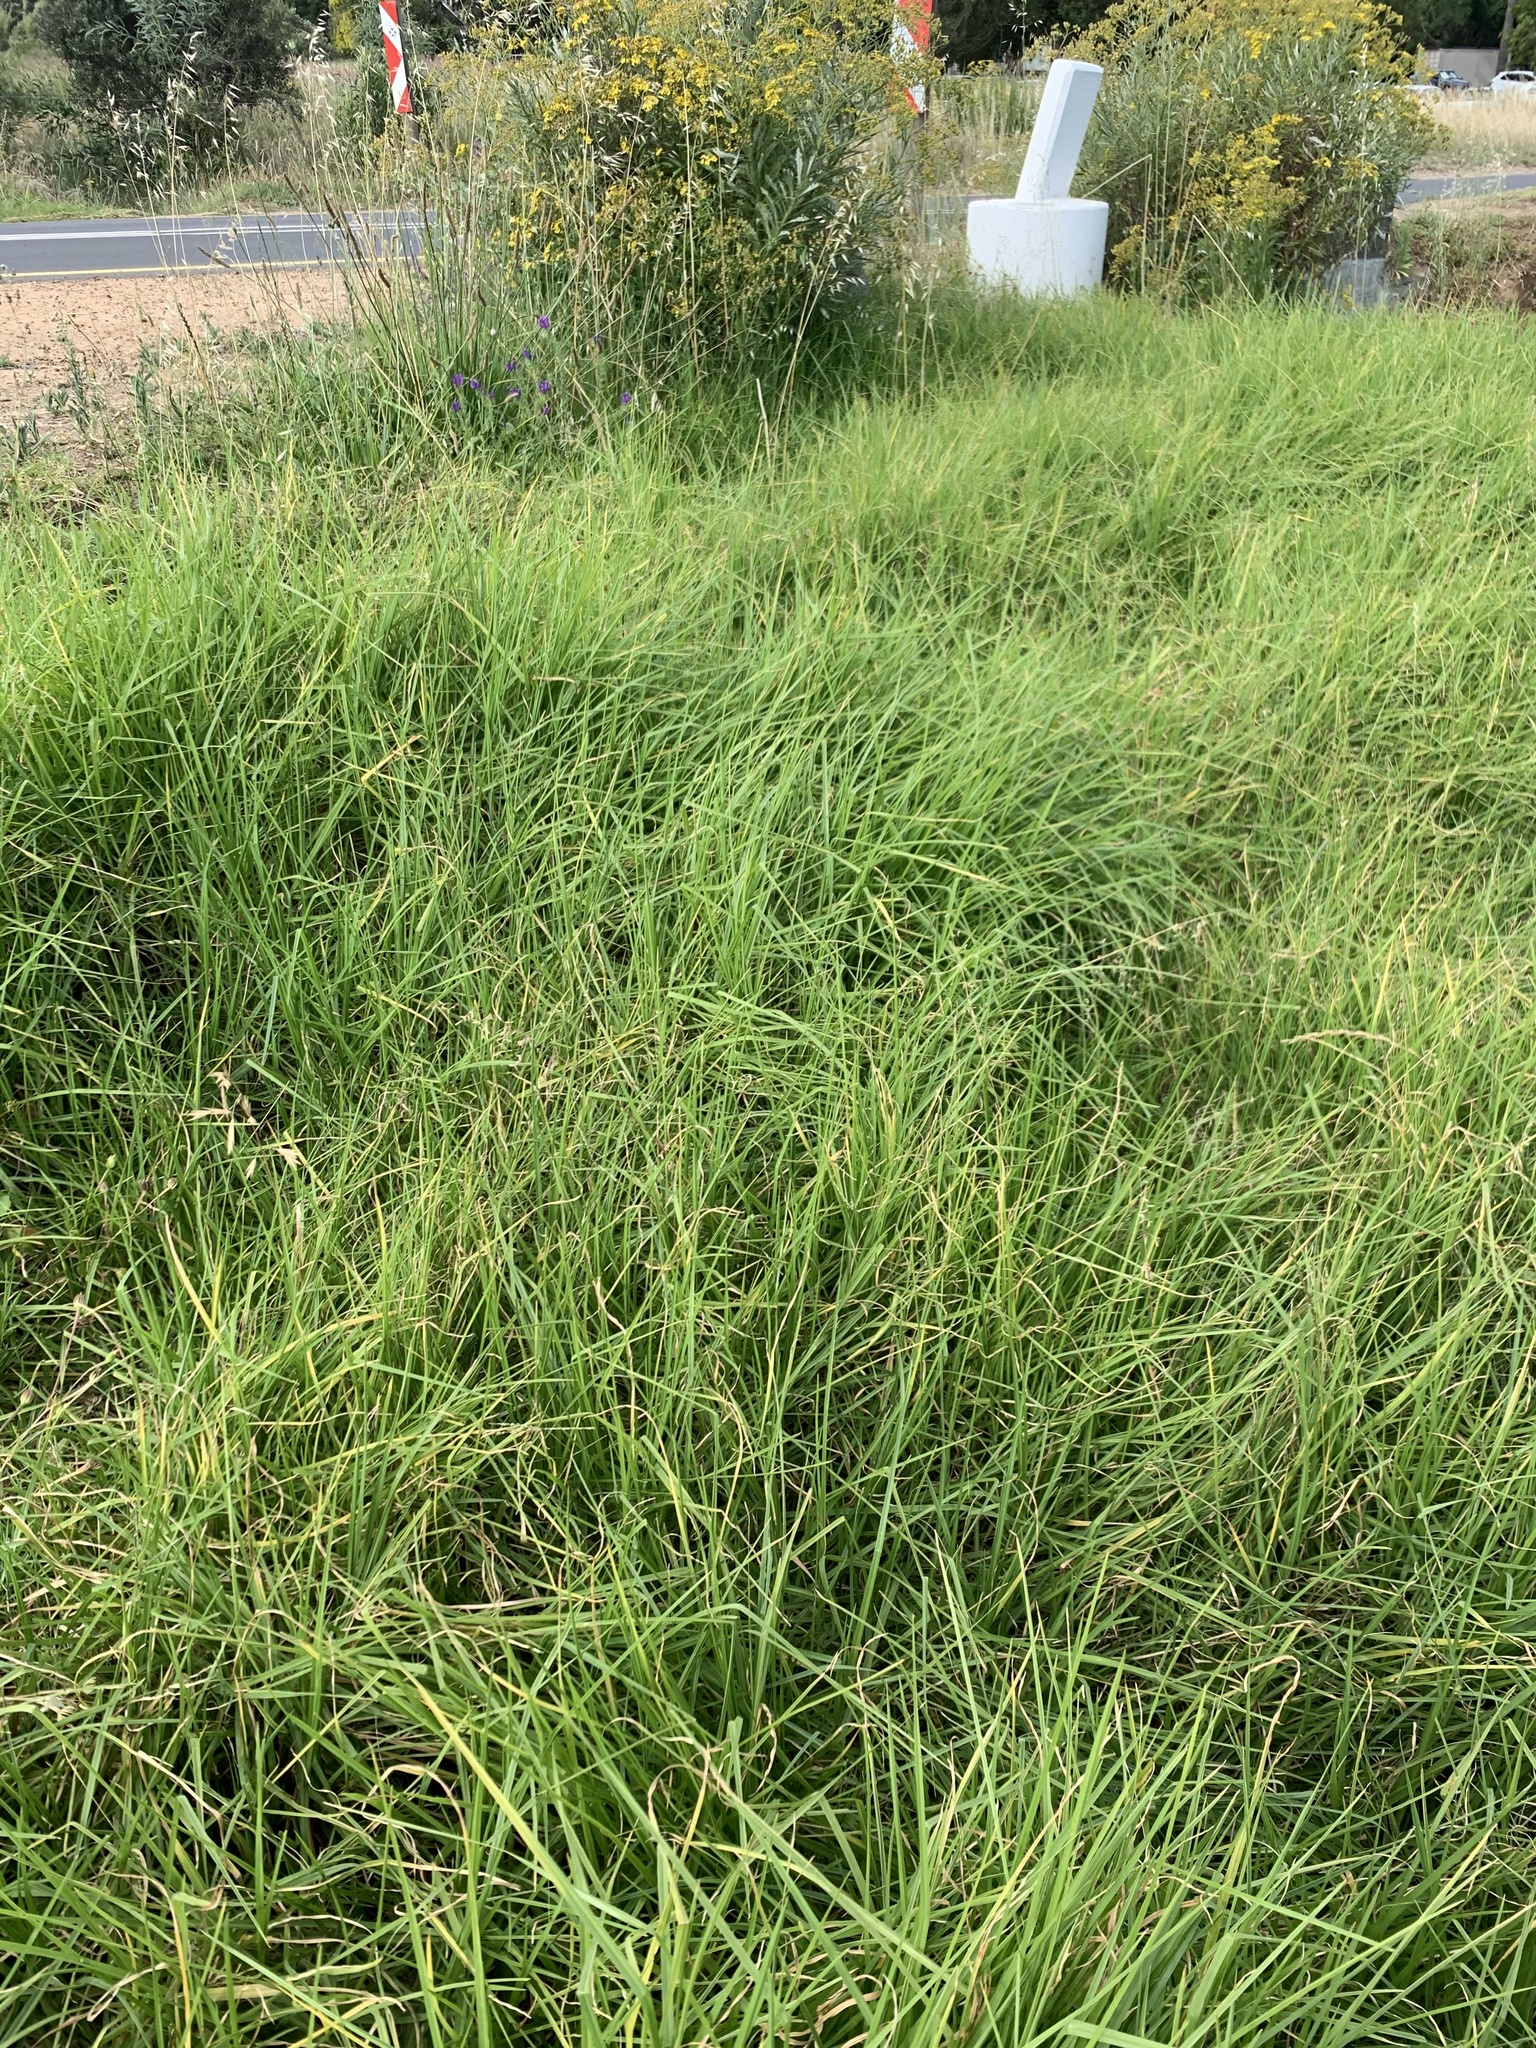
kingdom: Plantae
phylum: Tracheophyta
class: Liliopsida
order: Poales
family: Poaceae
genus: Cenchrus
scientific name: Cenchrus clandestinus
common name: Kikuyugrass
